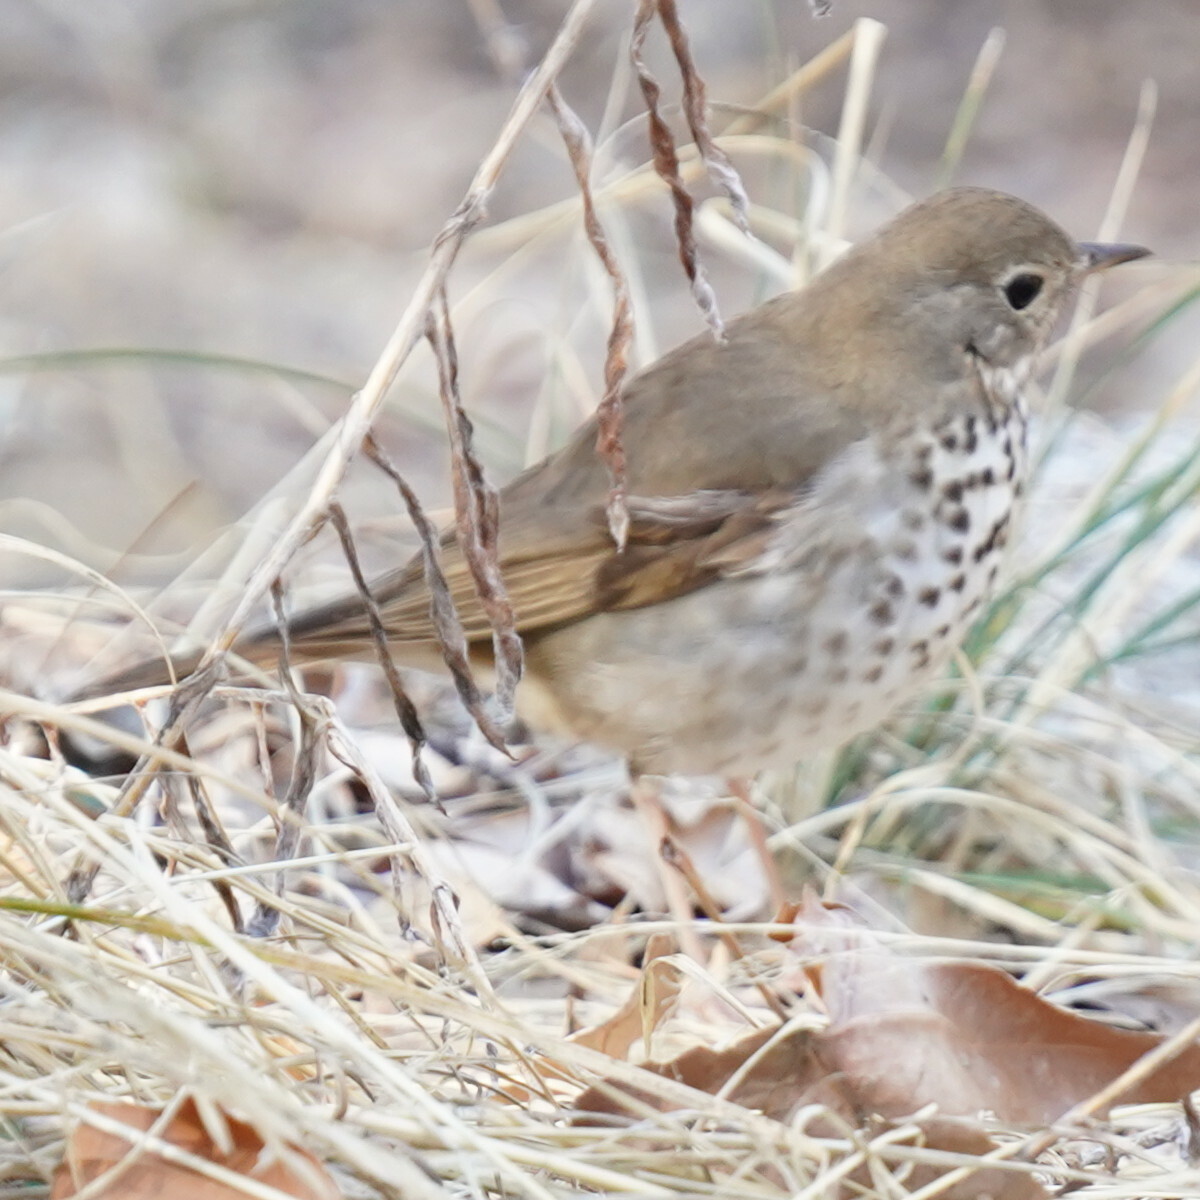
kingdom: Animalia
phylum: Chordata
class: Aves
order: Passeriformes
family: Turdidae
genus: Catharus
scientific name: Catharus guttatus
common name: Hermit thrush
